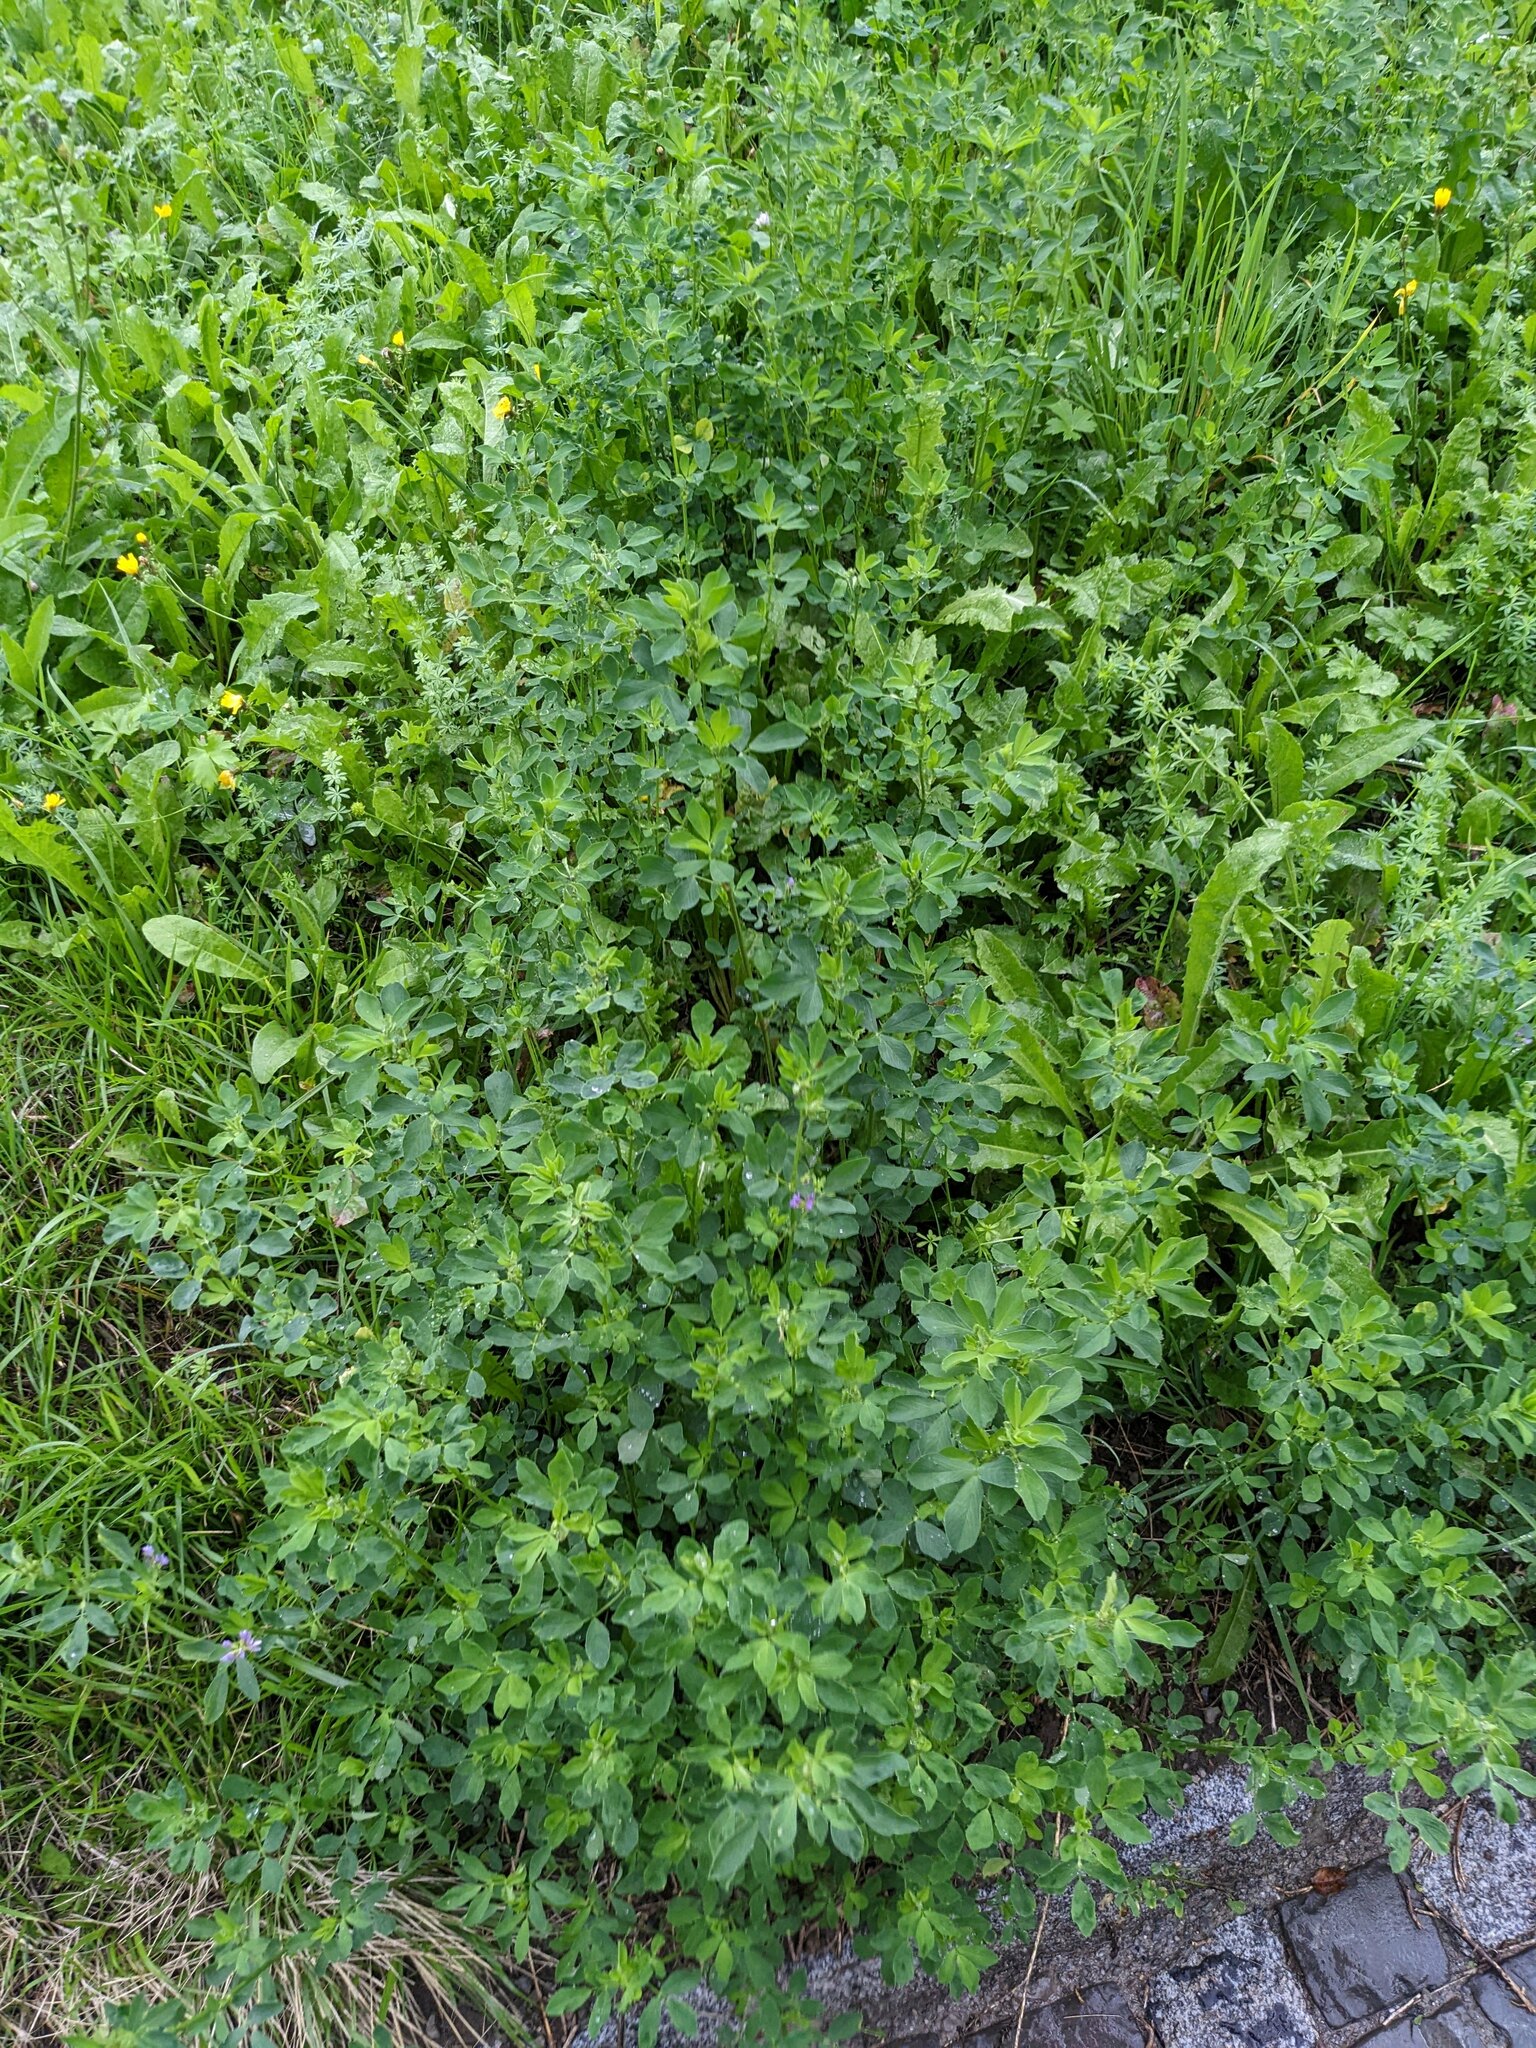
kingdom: Plantae
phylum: Tracheophyta
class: Magnoliopsida
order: Fabales
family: Fabaceae
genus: Medicago
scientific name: Medicago sativa
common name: Alfalfa
